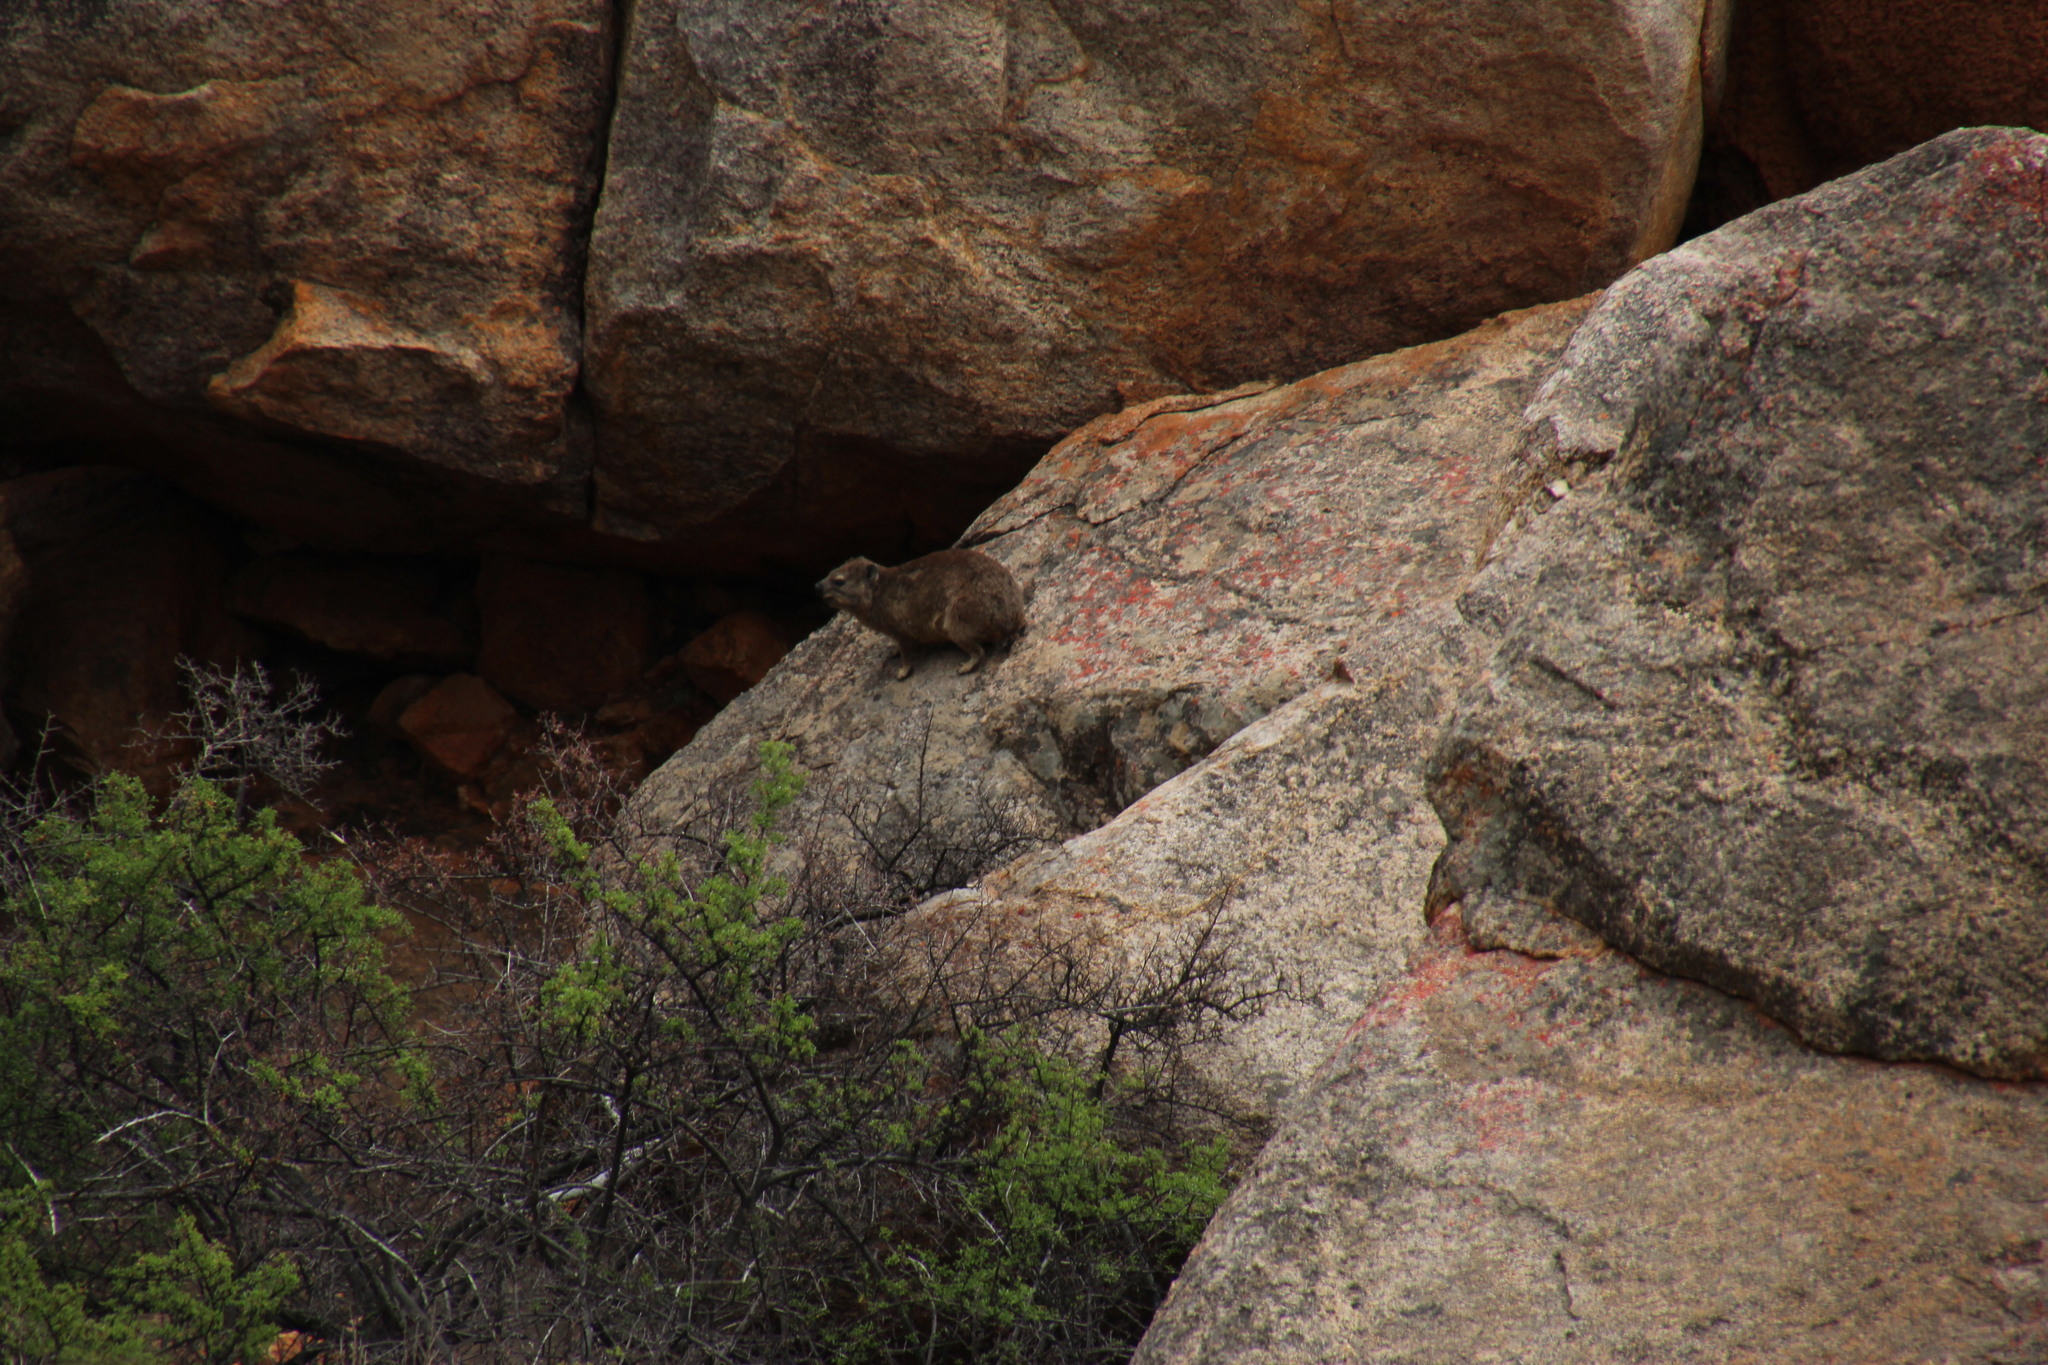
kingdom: Animalia
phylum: Chordata
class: Mammalia
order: Hyracoidea
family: Procaviidae
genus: Procavia
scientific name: Procavia capensis
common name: Rock hyrax
